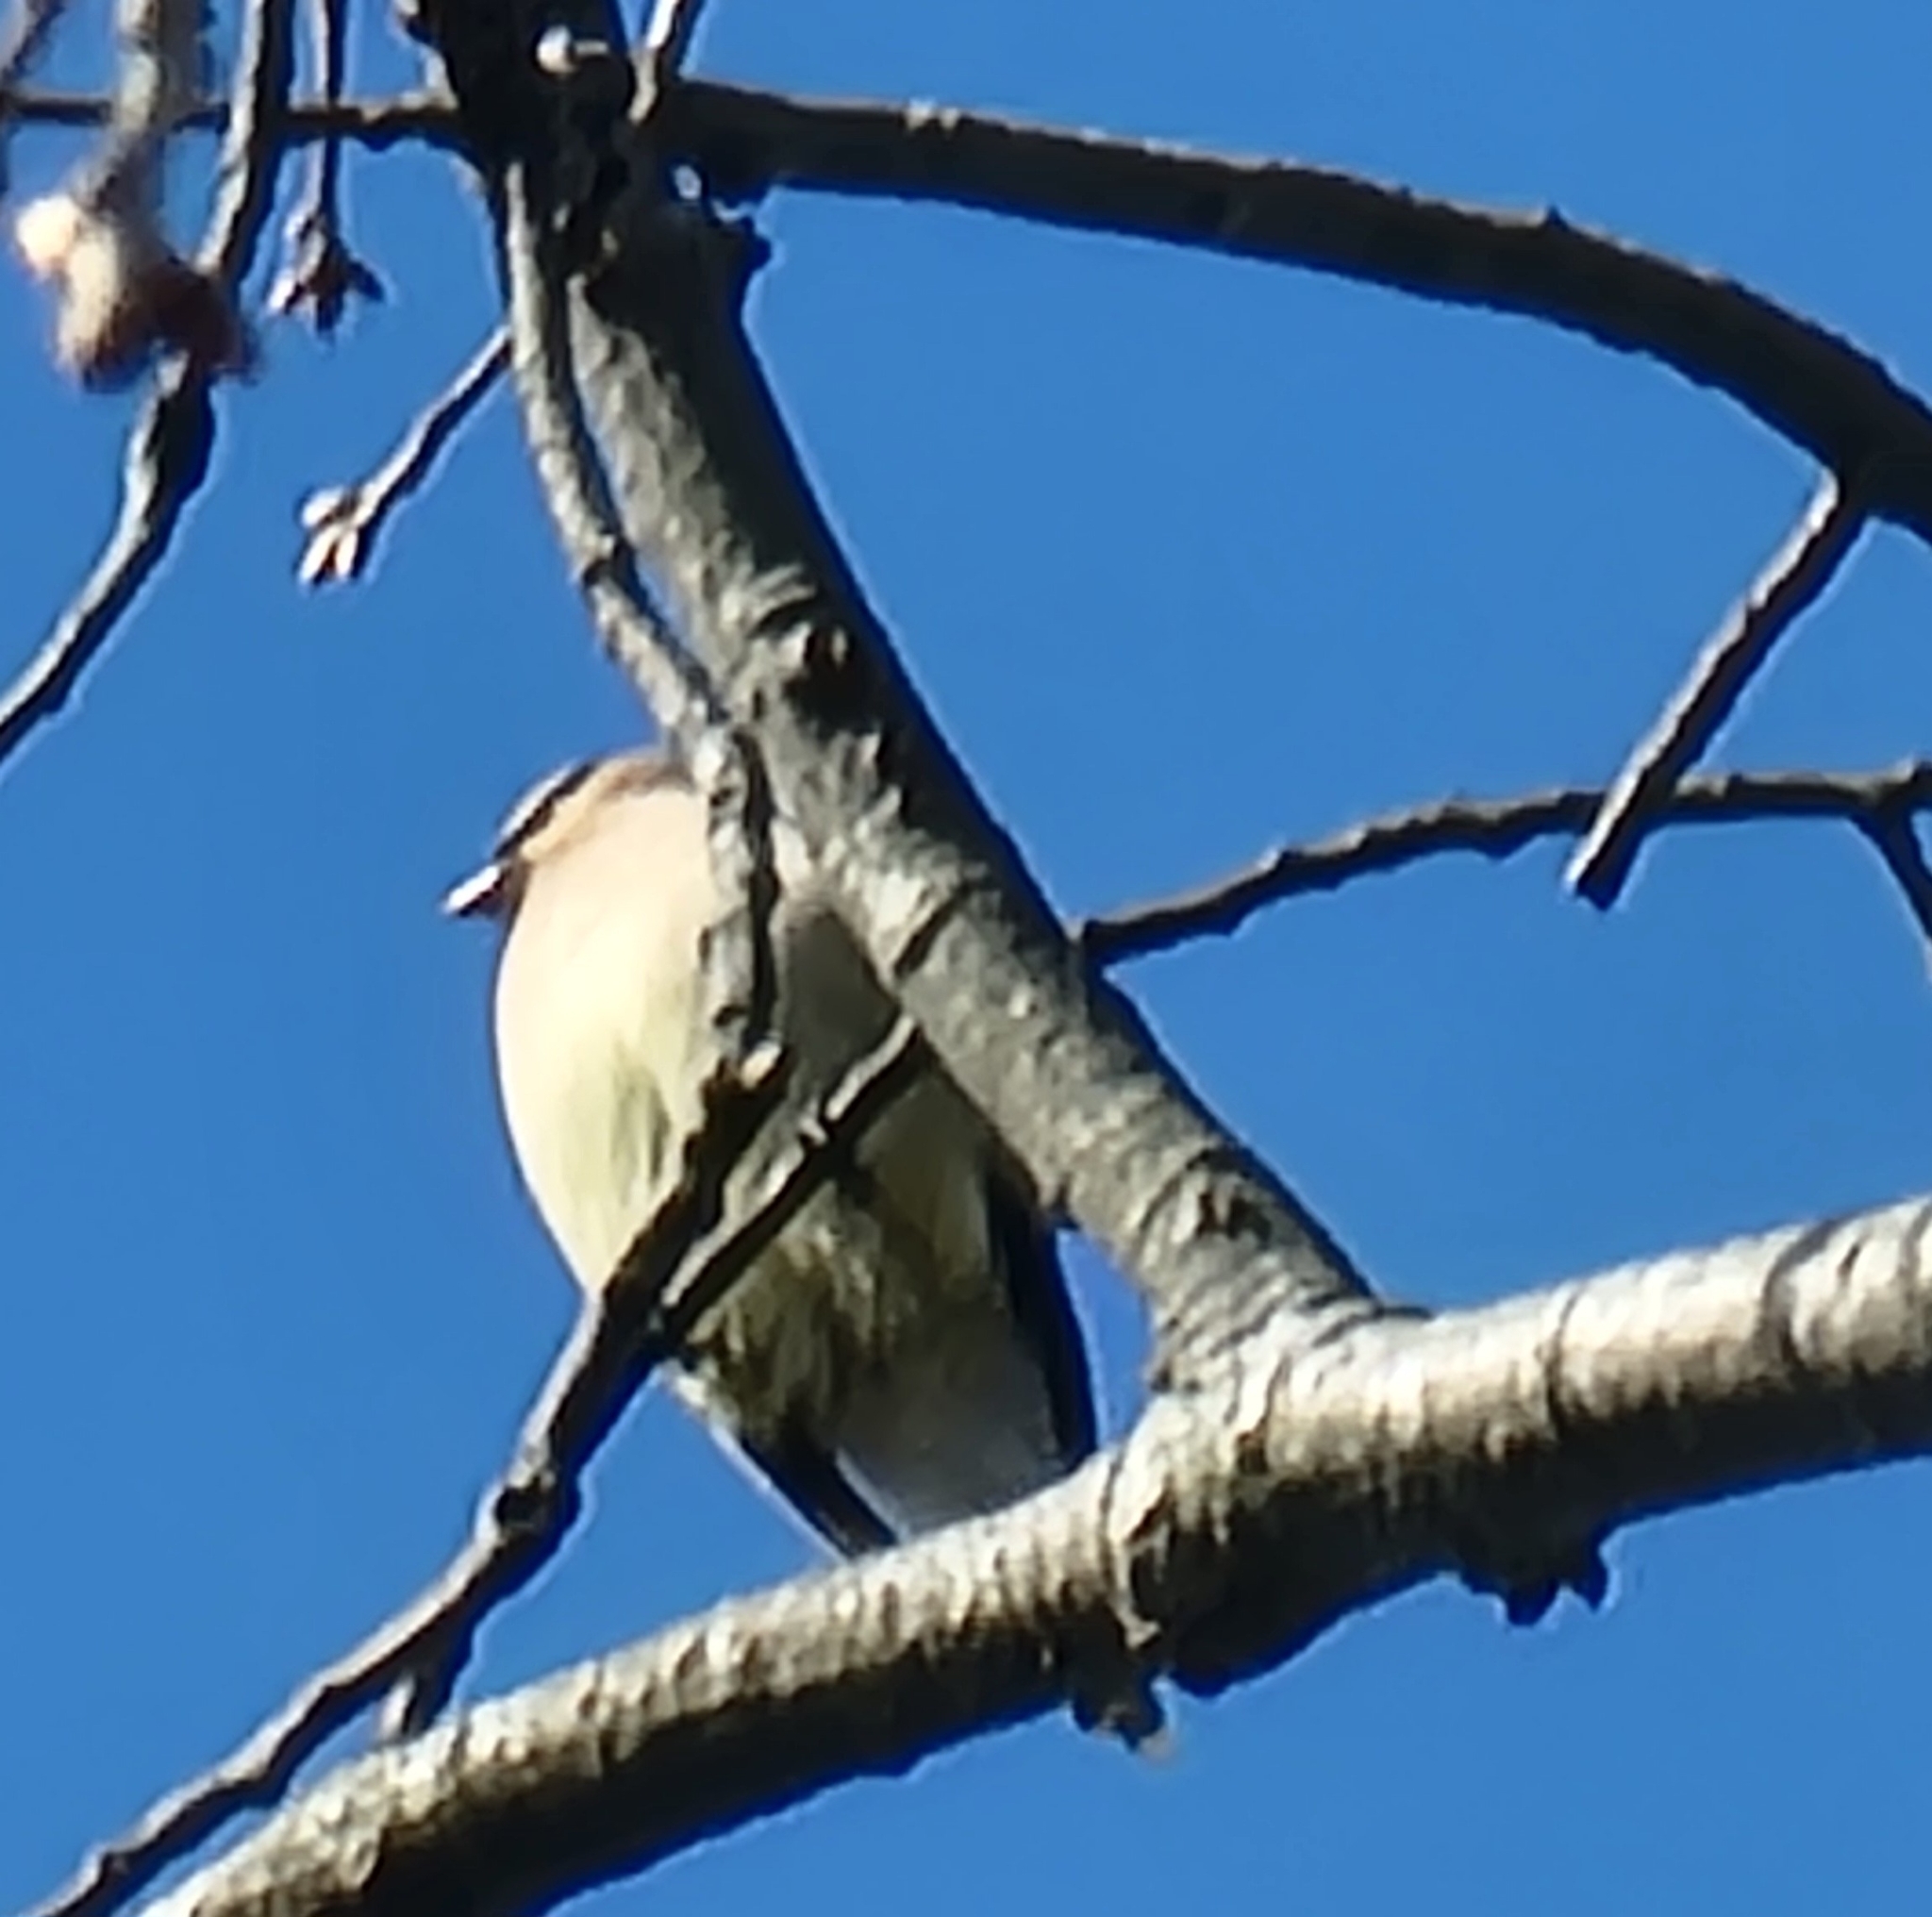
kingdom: Animalia
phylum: Chordata
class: Aves
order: Passeriformes
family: Bombycillidae
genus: Bombycilla
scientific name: Bombycilla cedrorum
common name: Cedar waxwing
